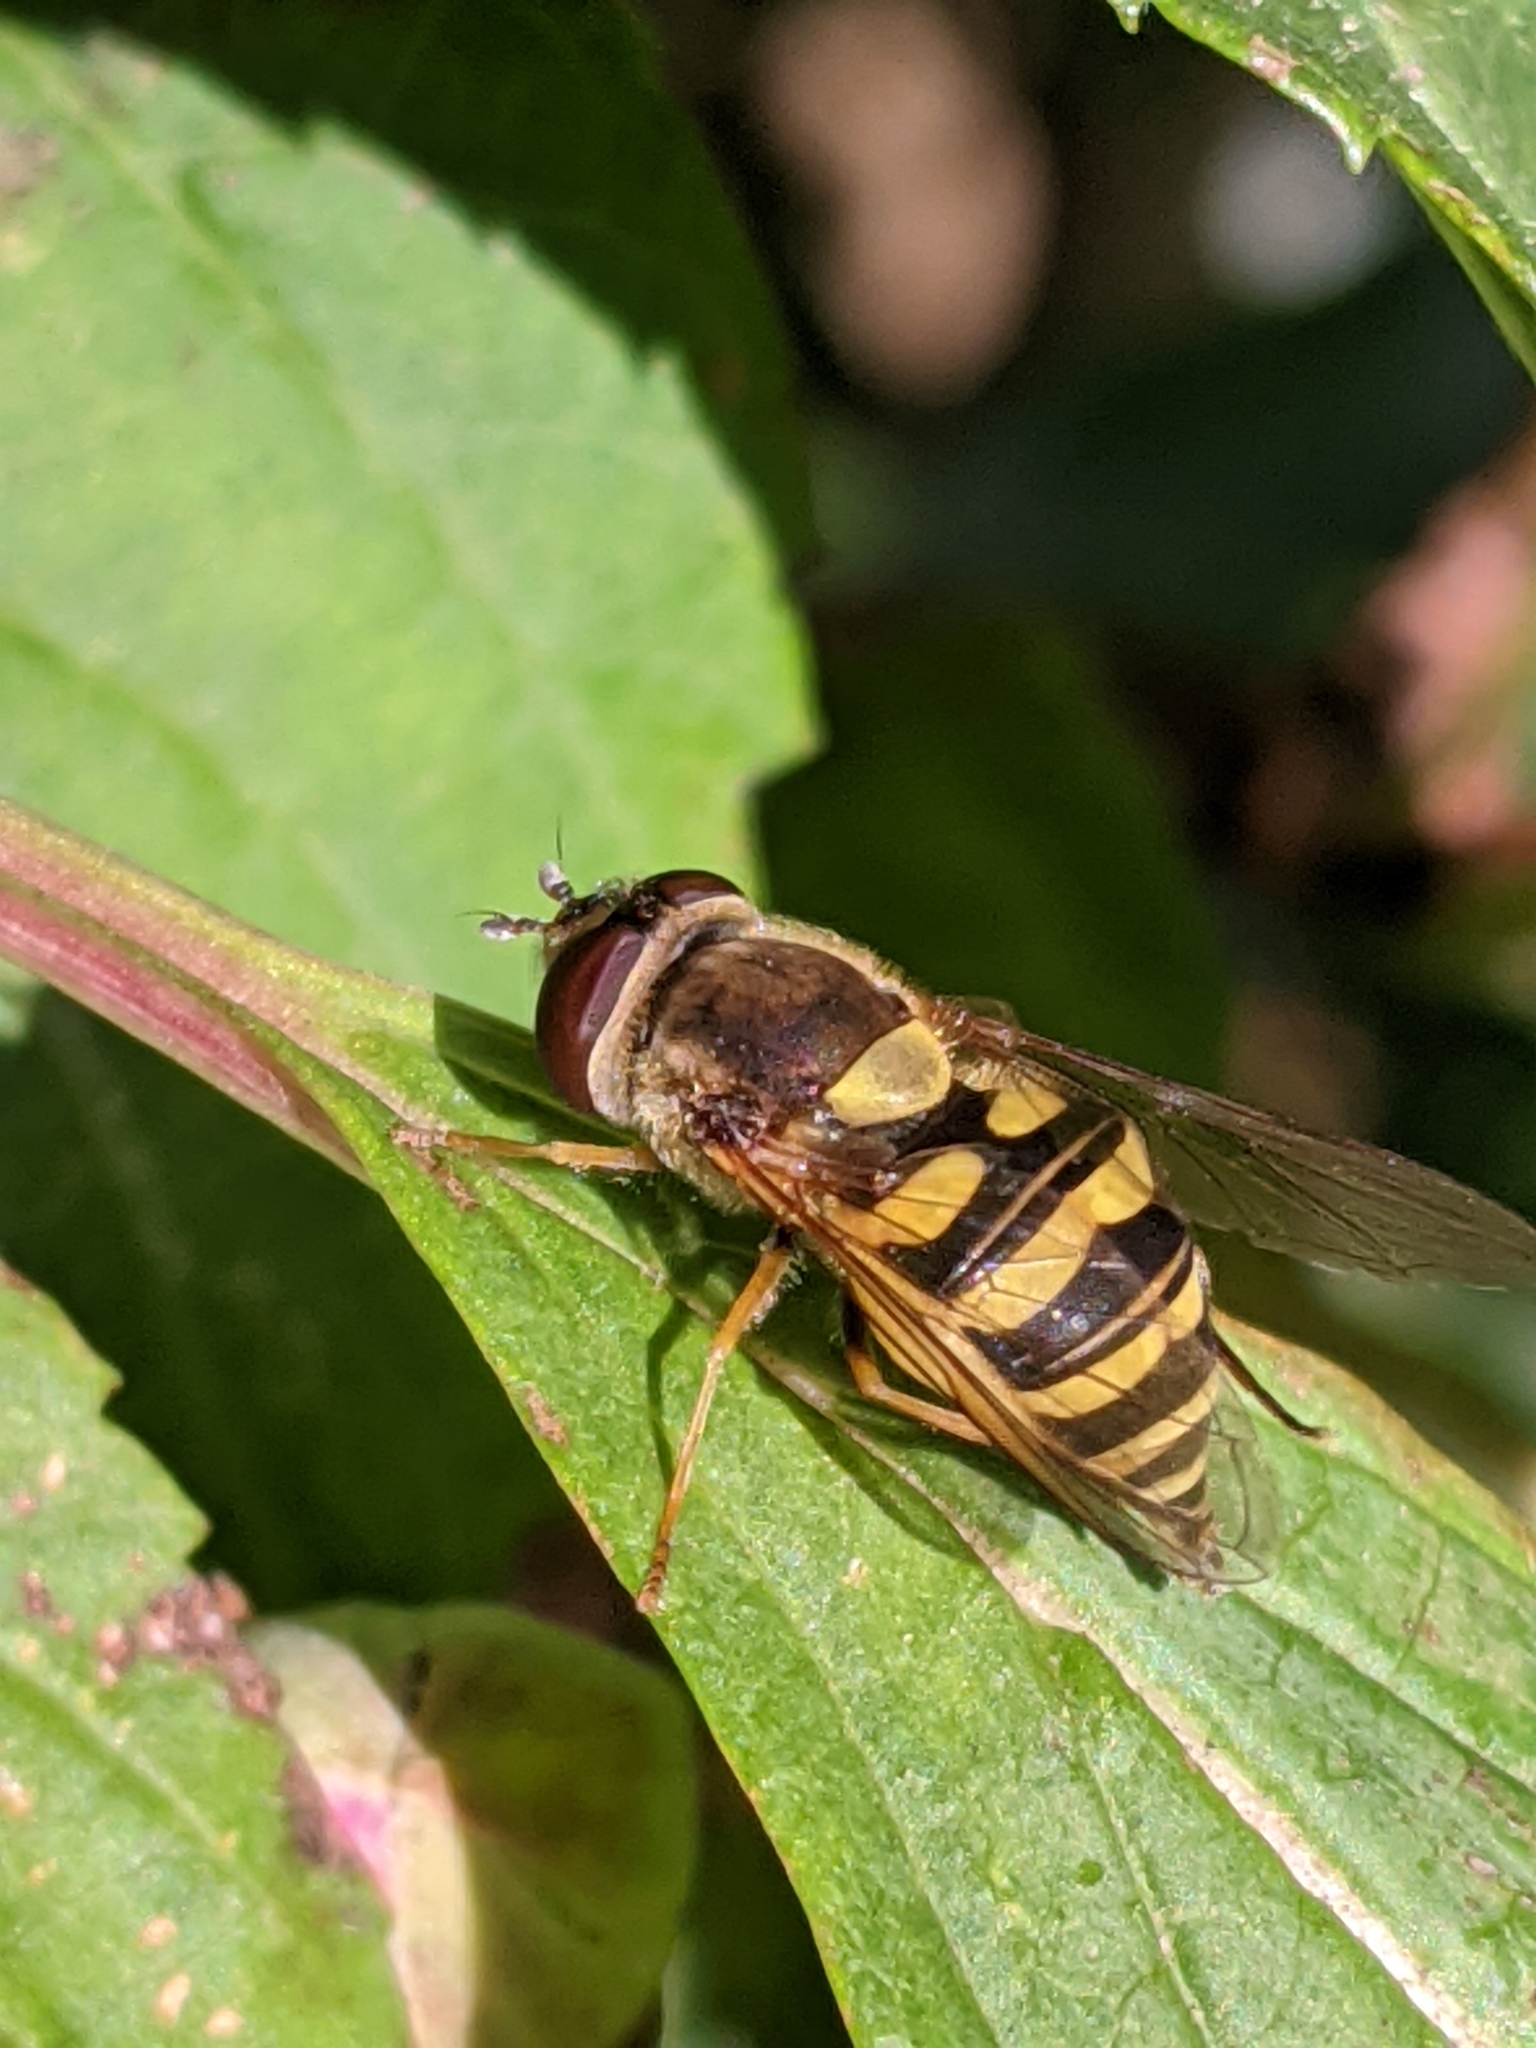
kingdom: Animalia
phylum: Arthropoda
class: Insecta
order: Diptera
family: Syrphidae
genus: Syrphus
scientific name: Syrphus
